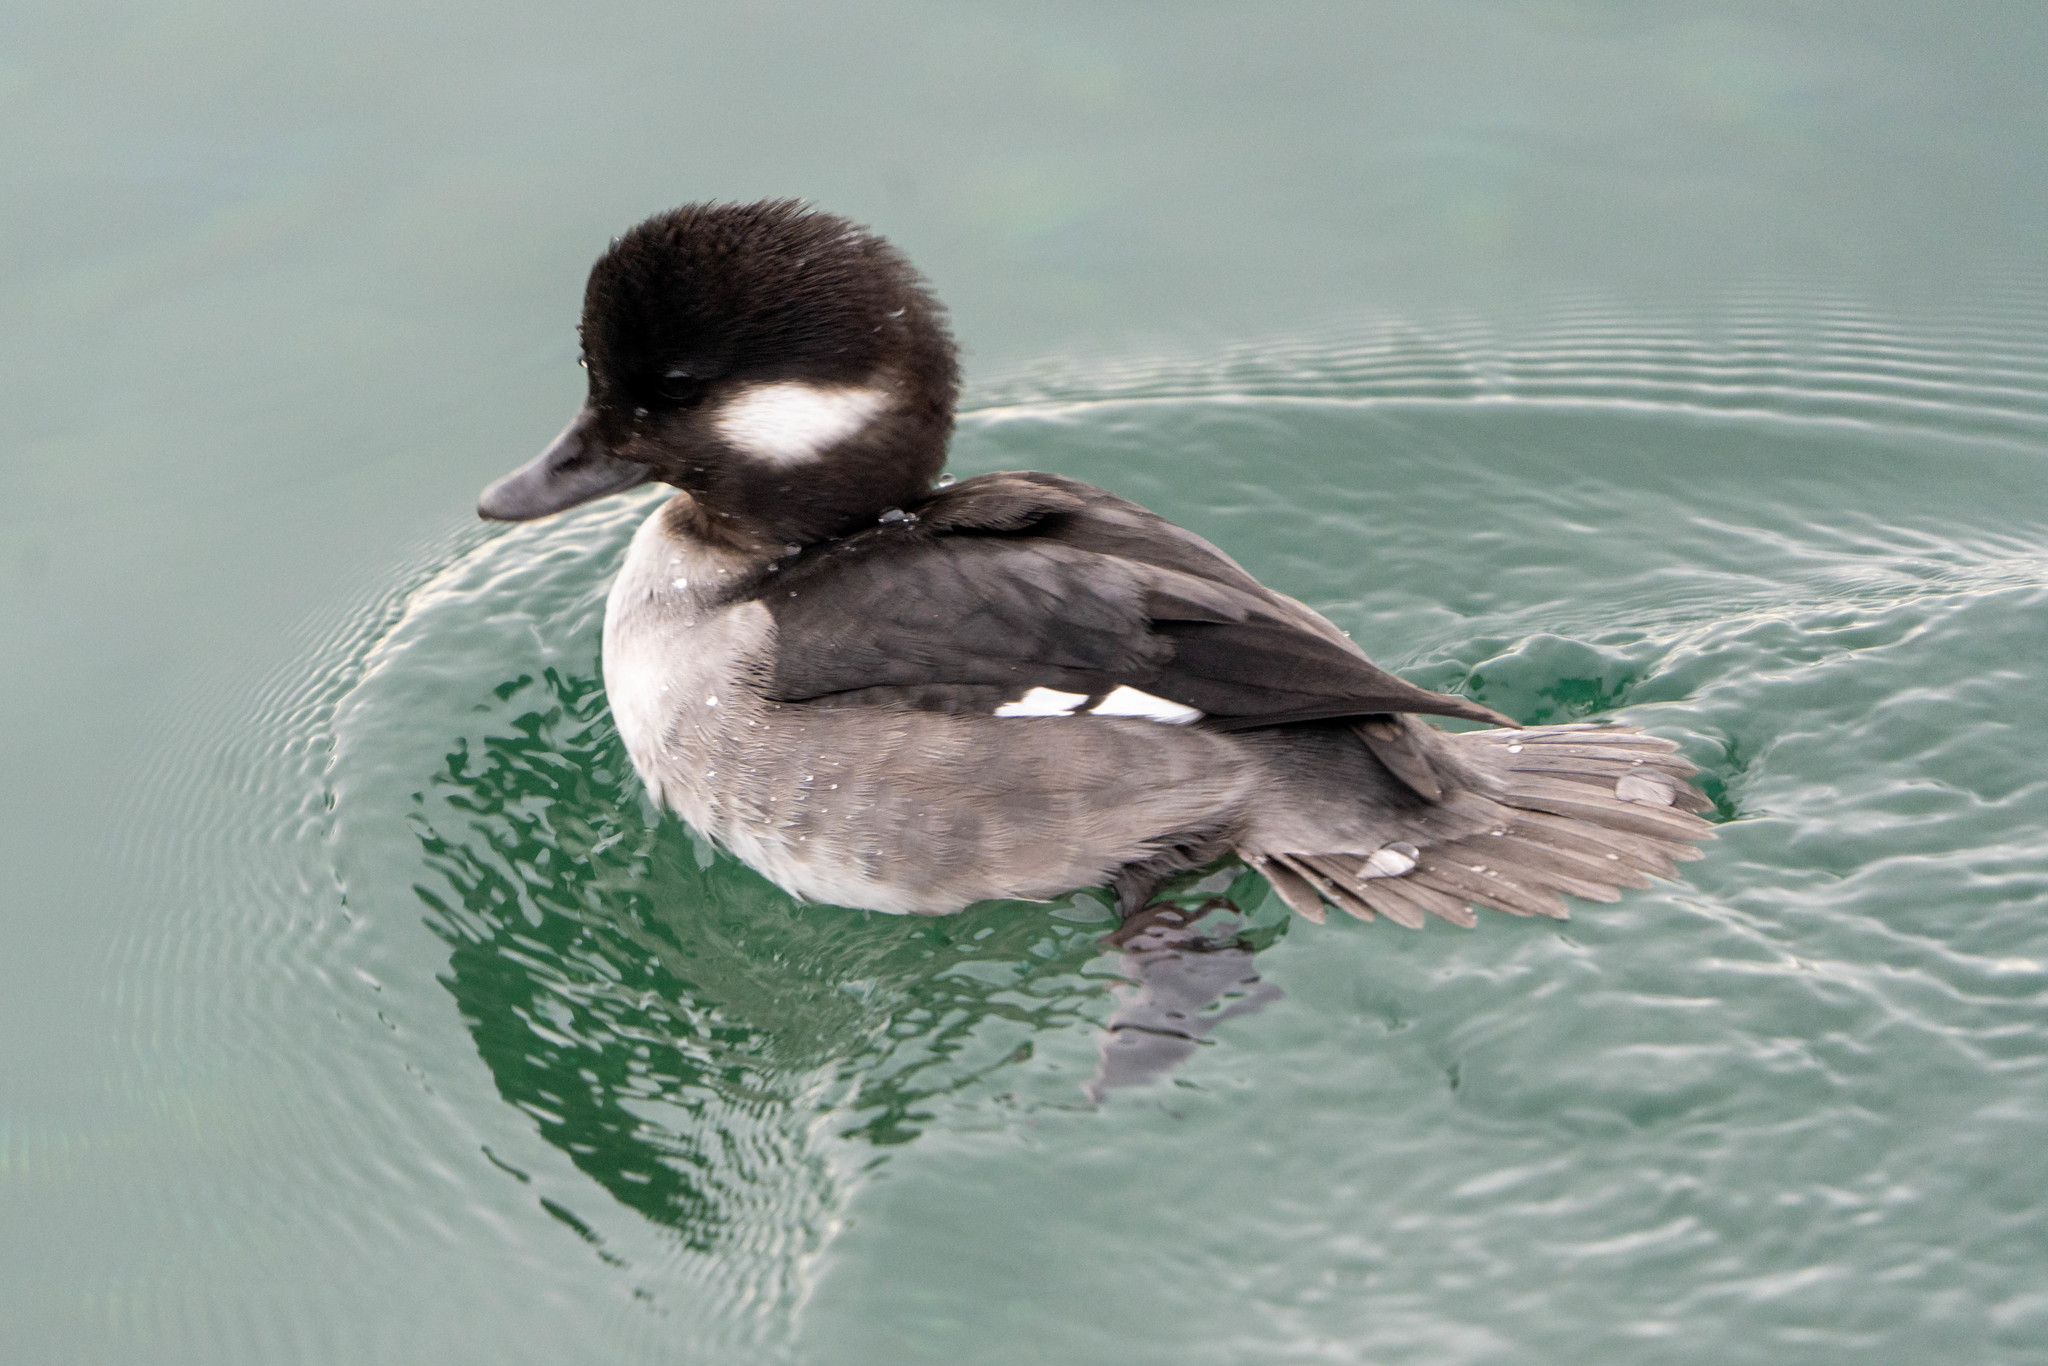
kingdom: Animalia
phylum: Chordata
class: Aves
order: Anseriformes
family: Anatidae
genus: Bucephala
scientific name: Bucephala albeola
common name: Bufflehead
